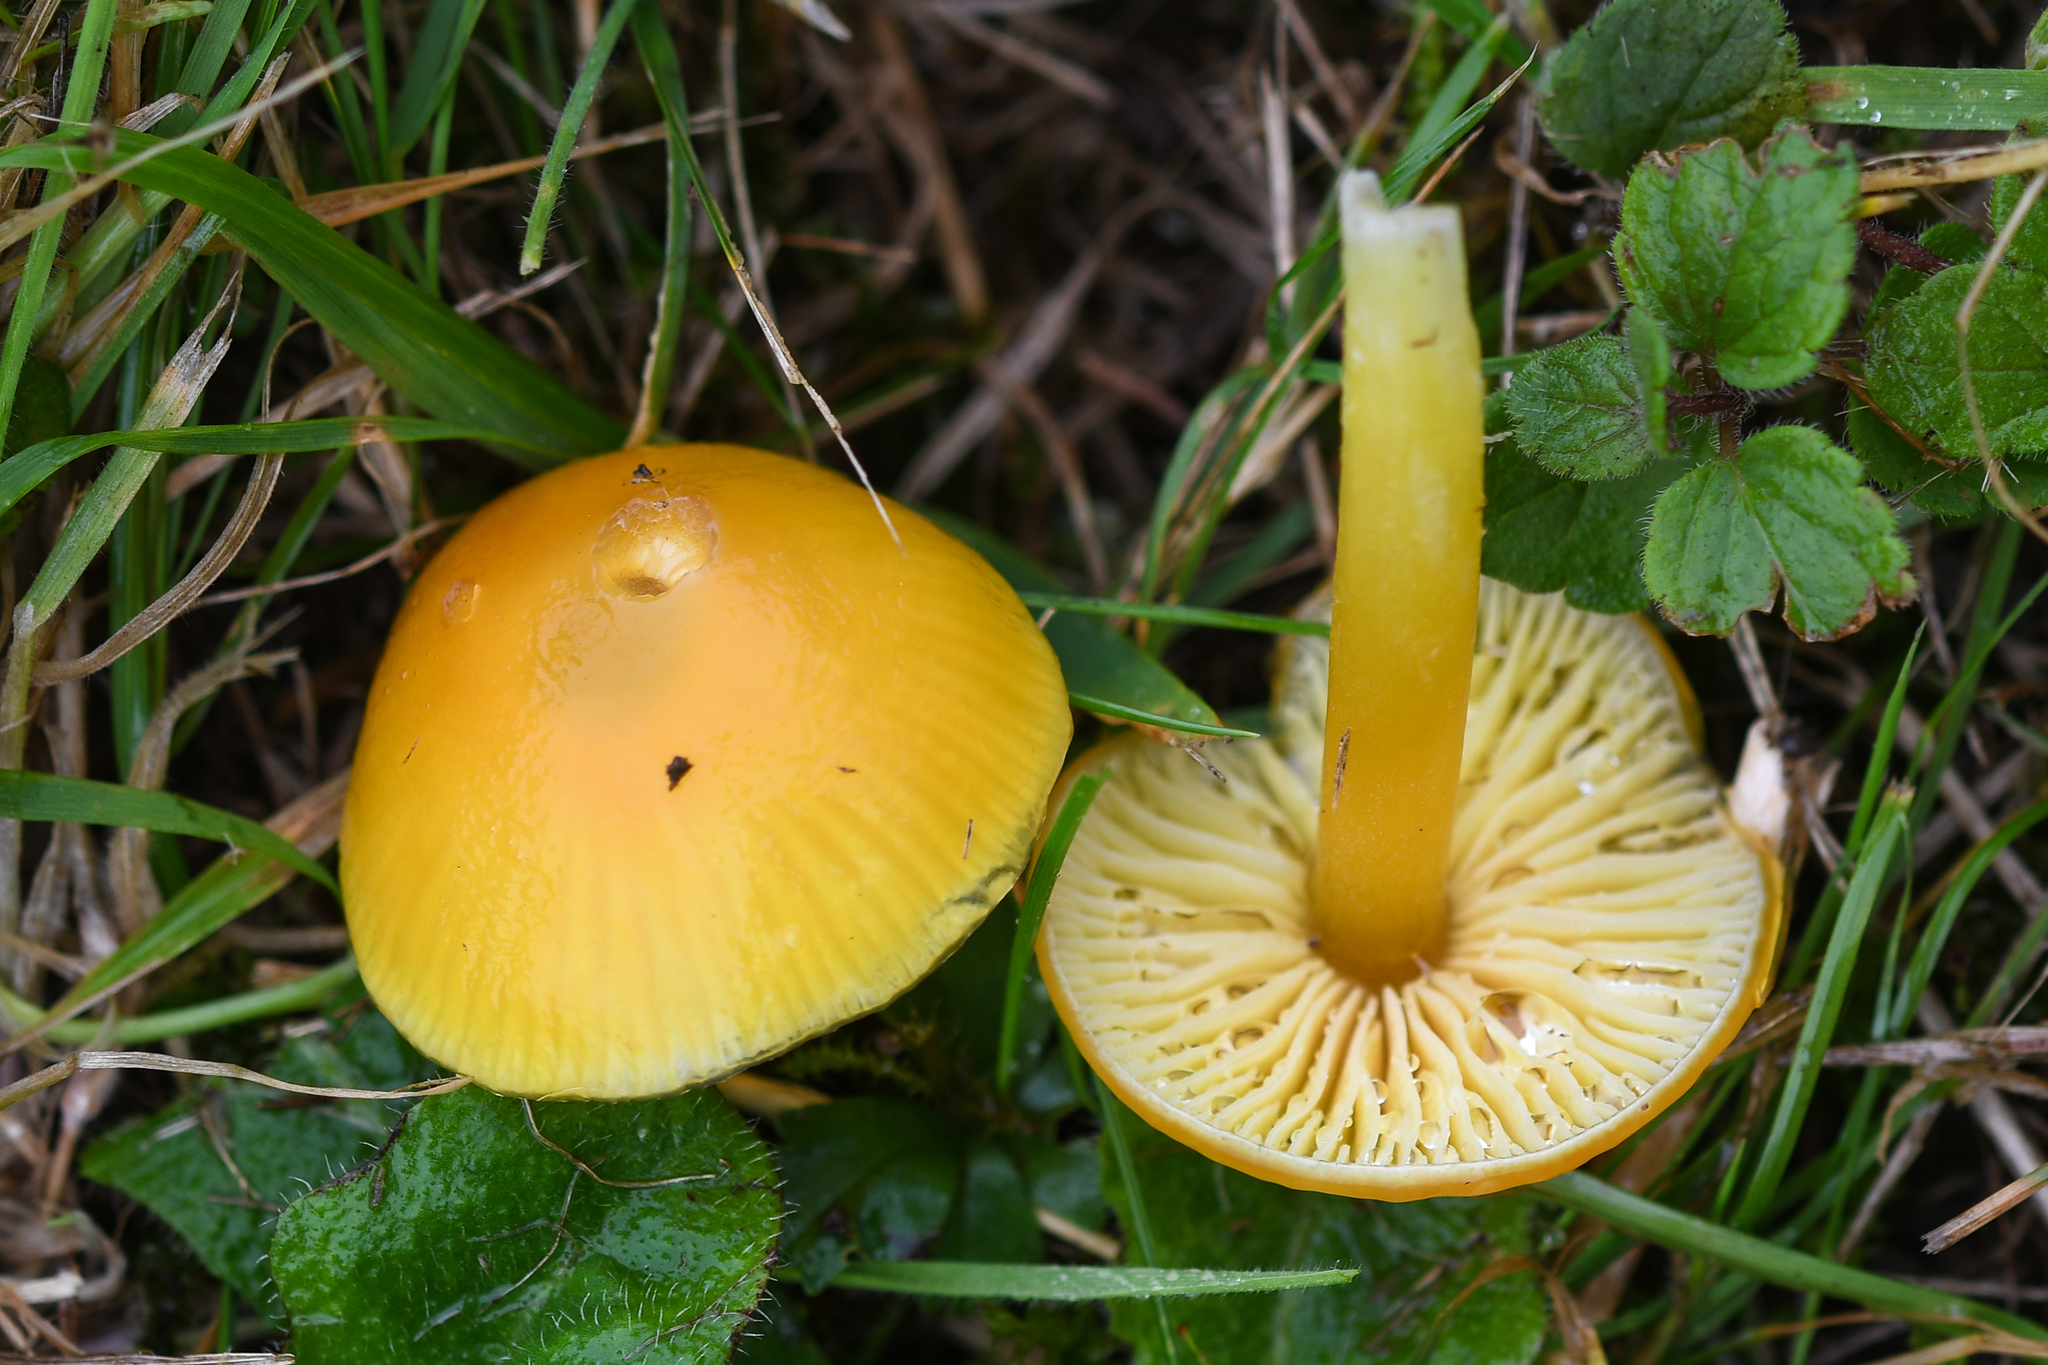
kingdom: Fungi
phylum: Basidiomycota
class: Agaricomycetes
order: Agaricales
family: Hygrophoraceae
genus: Hygrocybe
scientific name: Hygrocybe chlorophana
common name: Golden waxcap
